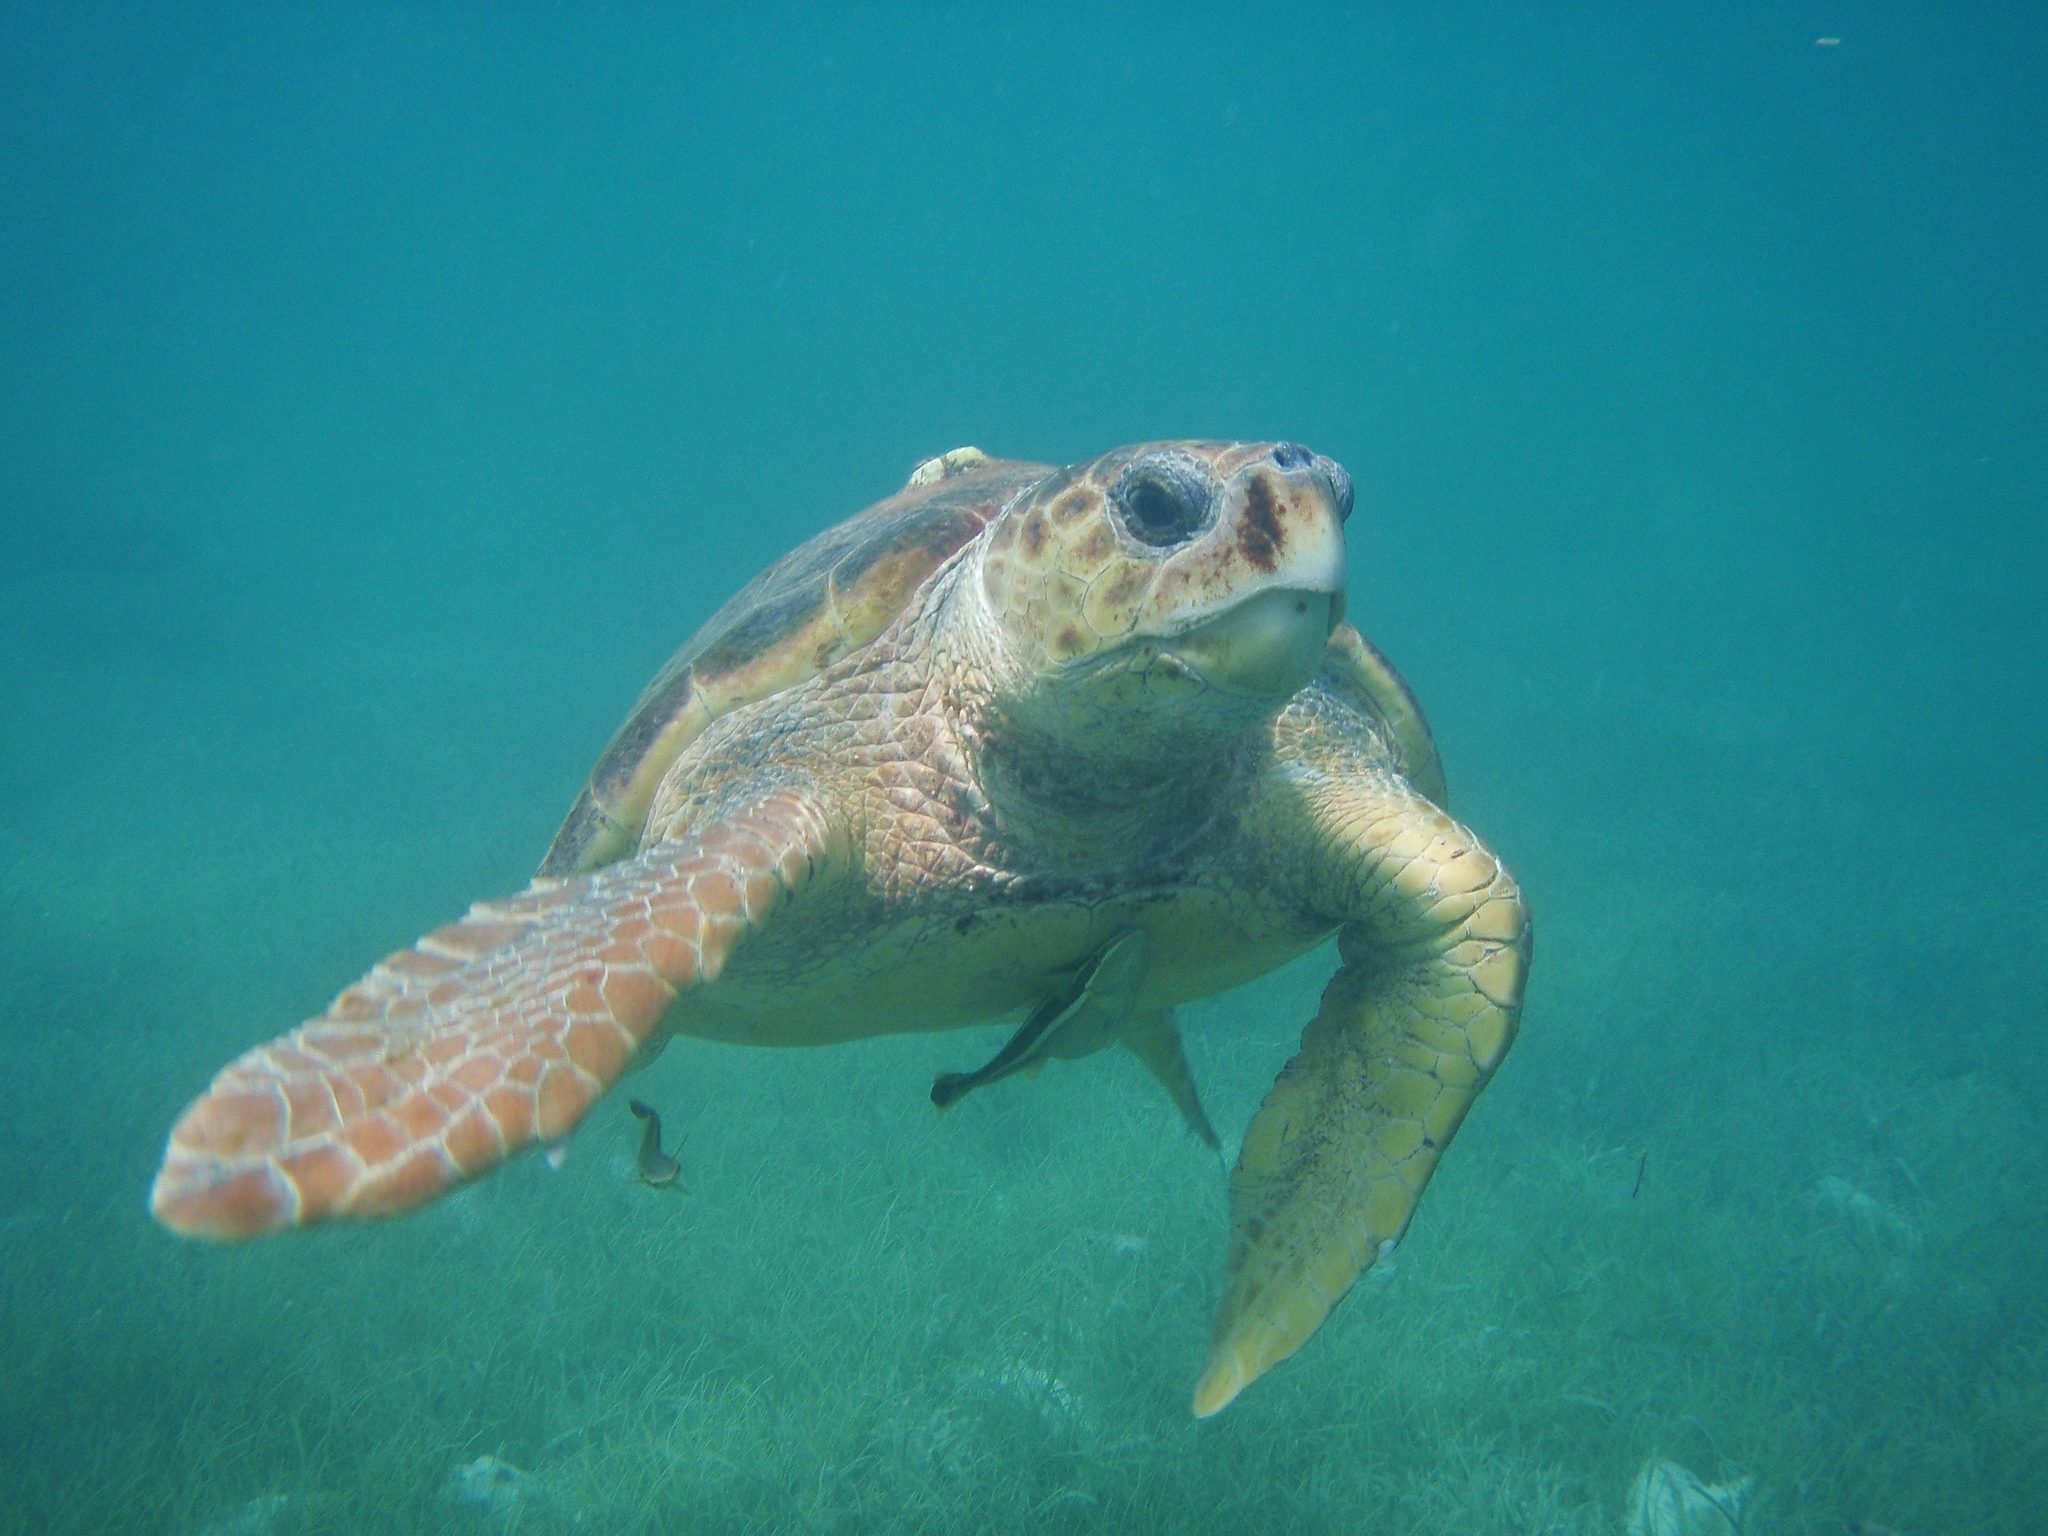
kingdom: Animalia
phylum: Chordata
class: Testudines
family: Cheloniidae
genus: Caretta
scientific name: Caretta caretta
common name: Loggerhead sea turtle
